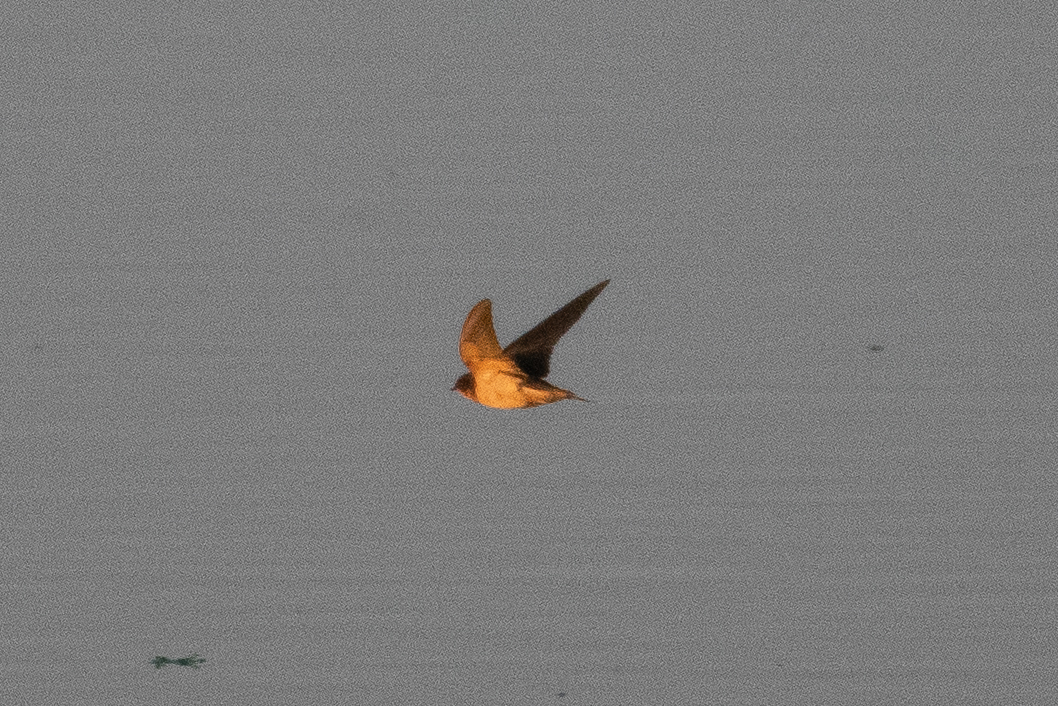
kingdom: Animalia
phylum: Chordata
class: Aves
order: Passeriformes
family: Hirundinidae
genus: Hirundo
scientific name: Hirundo rustica
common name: Barn swallow
